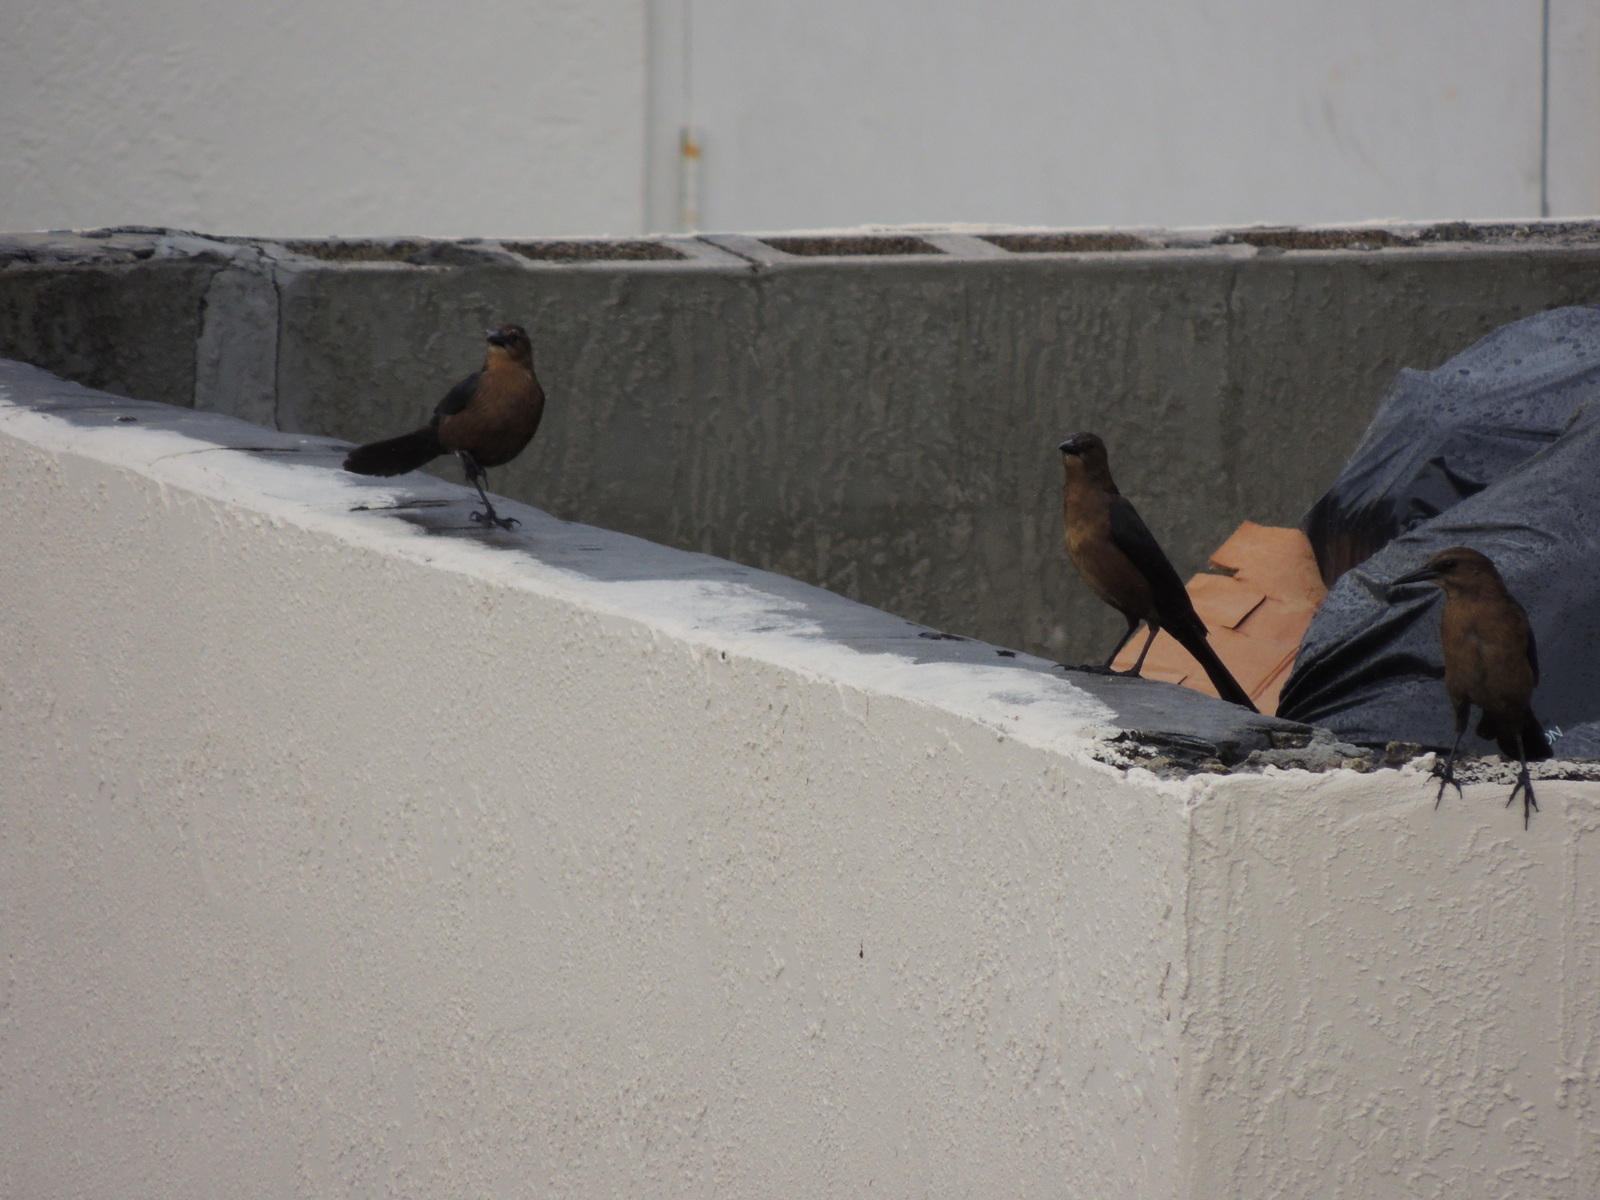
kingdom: Animalia
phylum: Chordata
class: Aves
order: Passeriformes
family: Icteridae
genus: Quiscalus
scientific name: Quiscalus major
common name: Boat-tailed grackle
